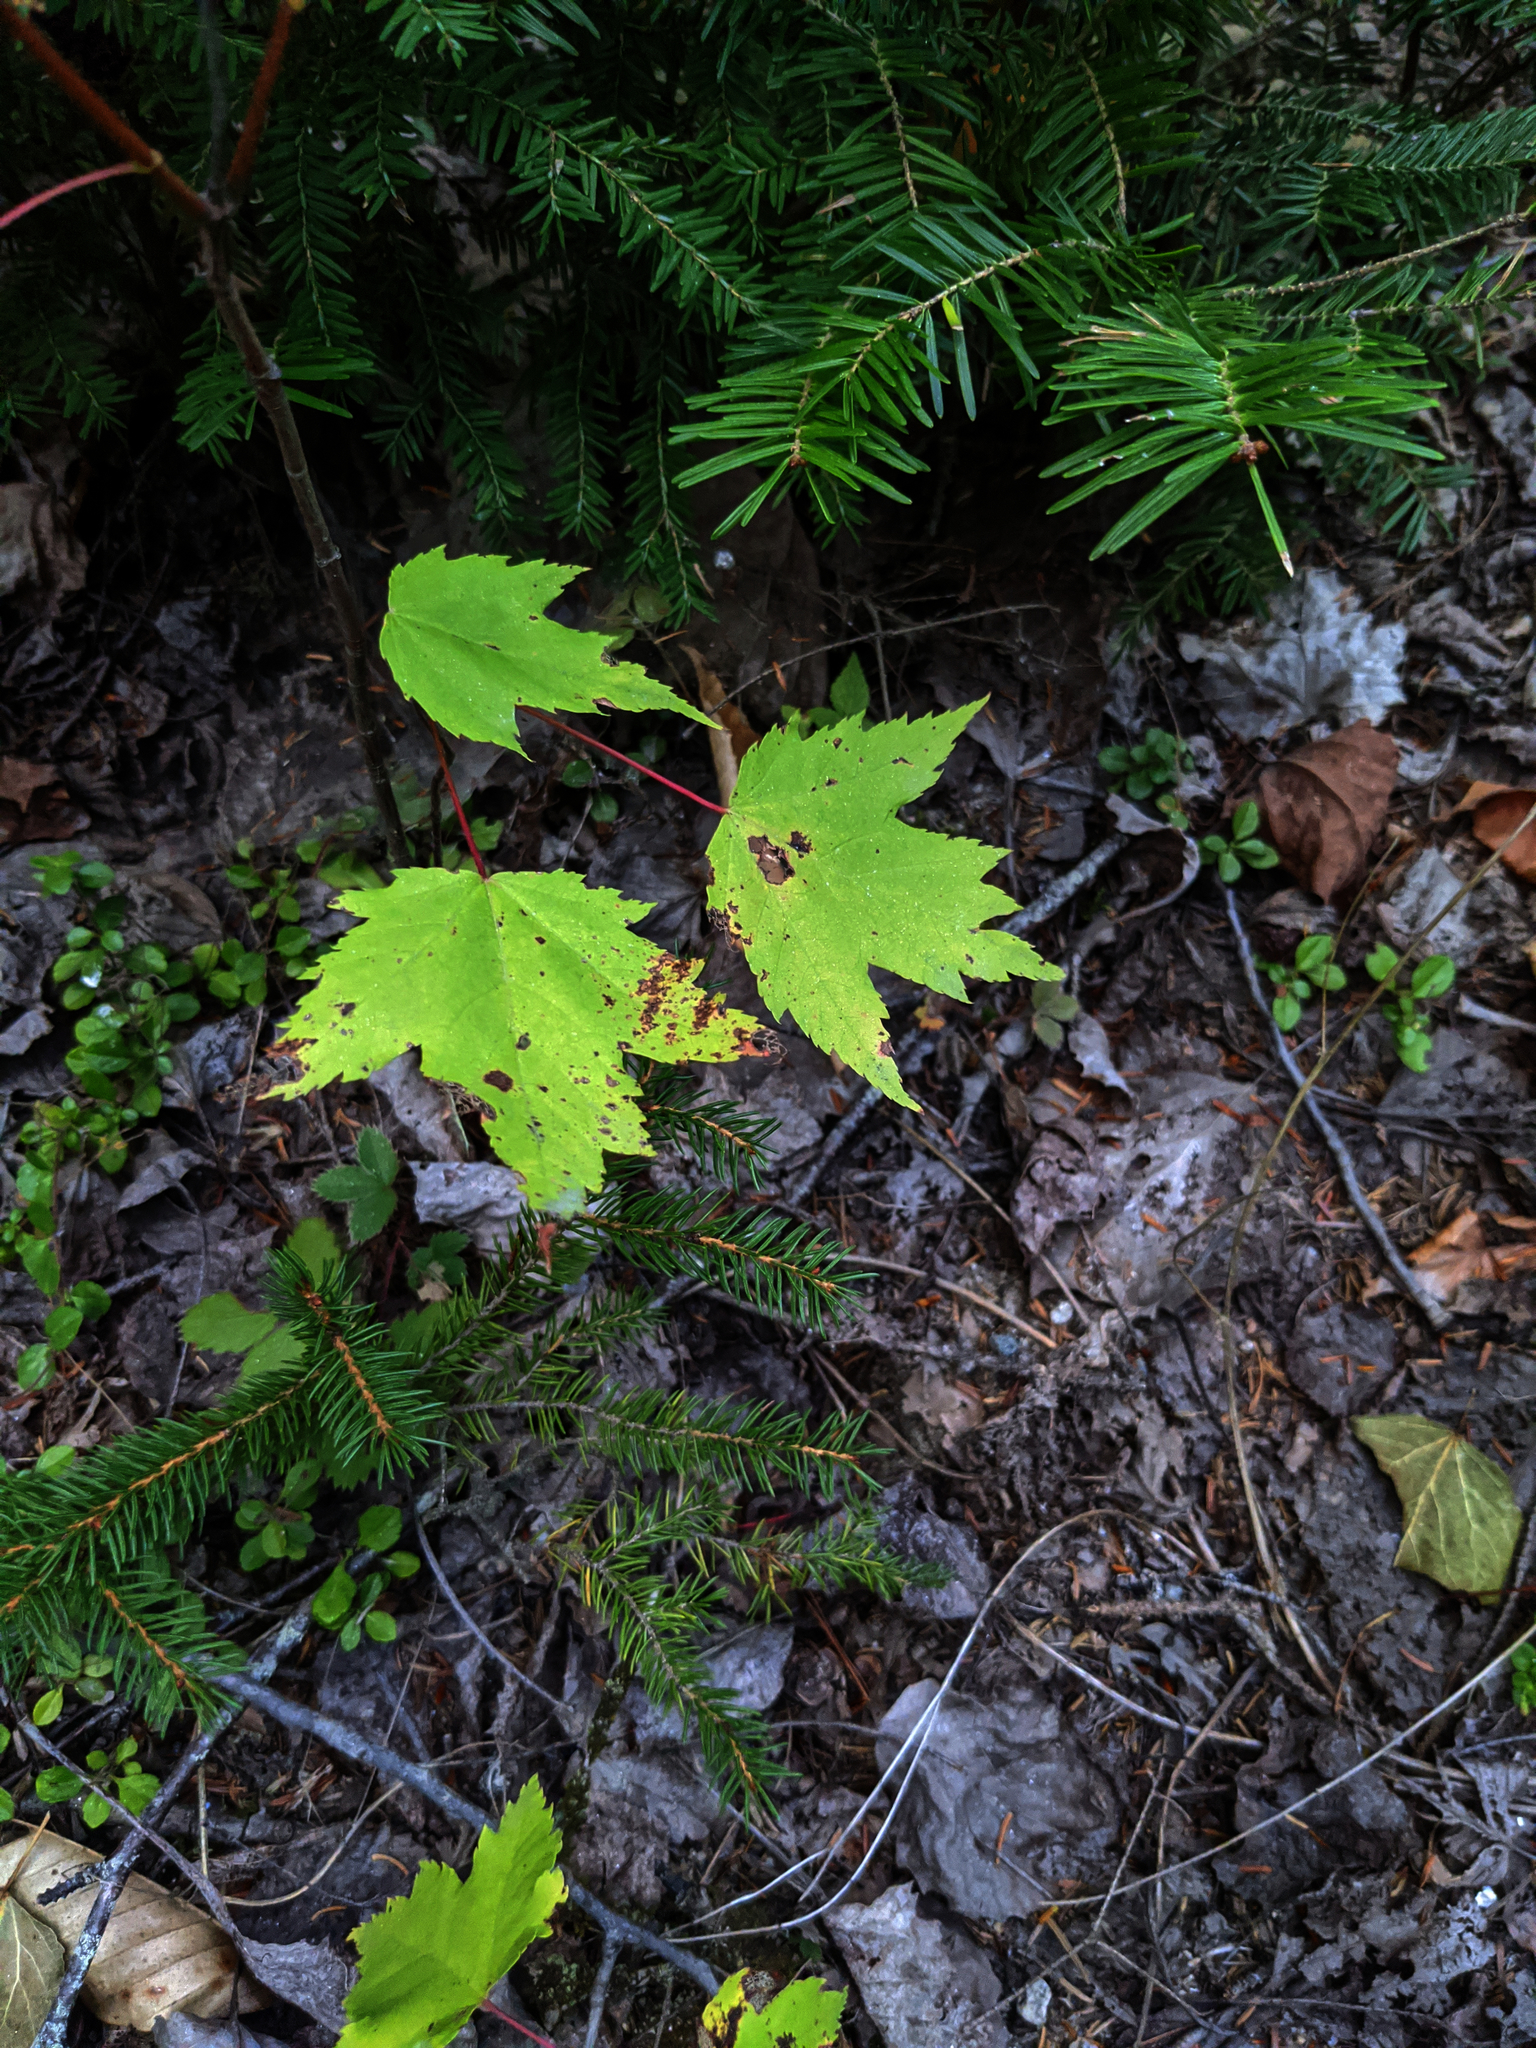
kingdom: Plantae
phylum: Tracheophyta
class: Magnoliopsida
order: Sapindales
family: Sapindaceae
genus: Acer
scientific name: Acer rubrum
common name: Red maple
